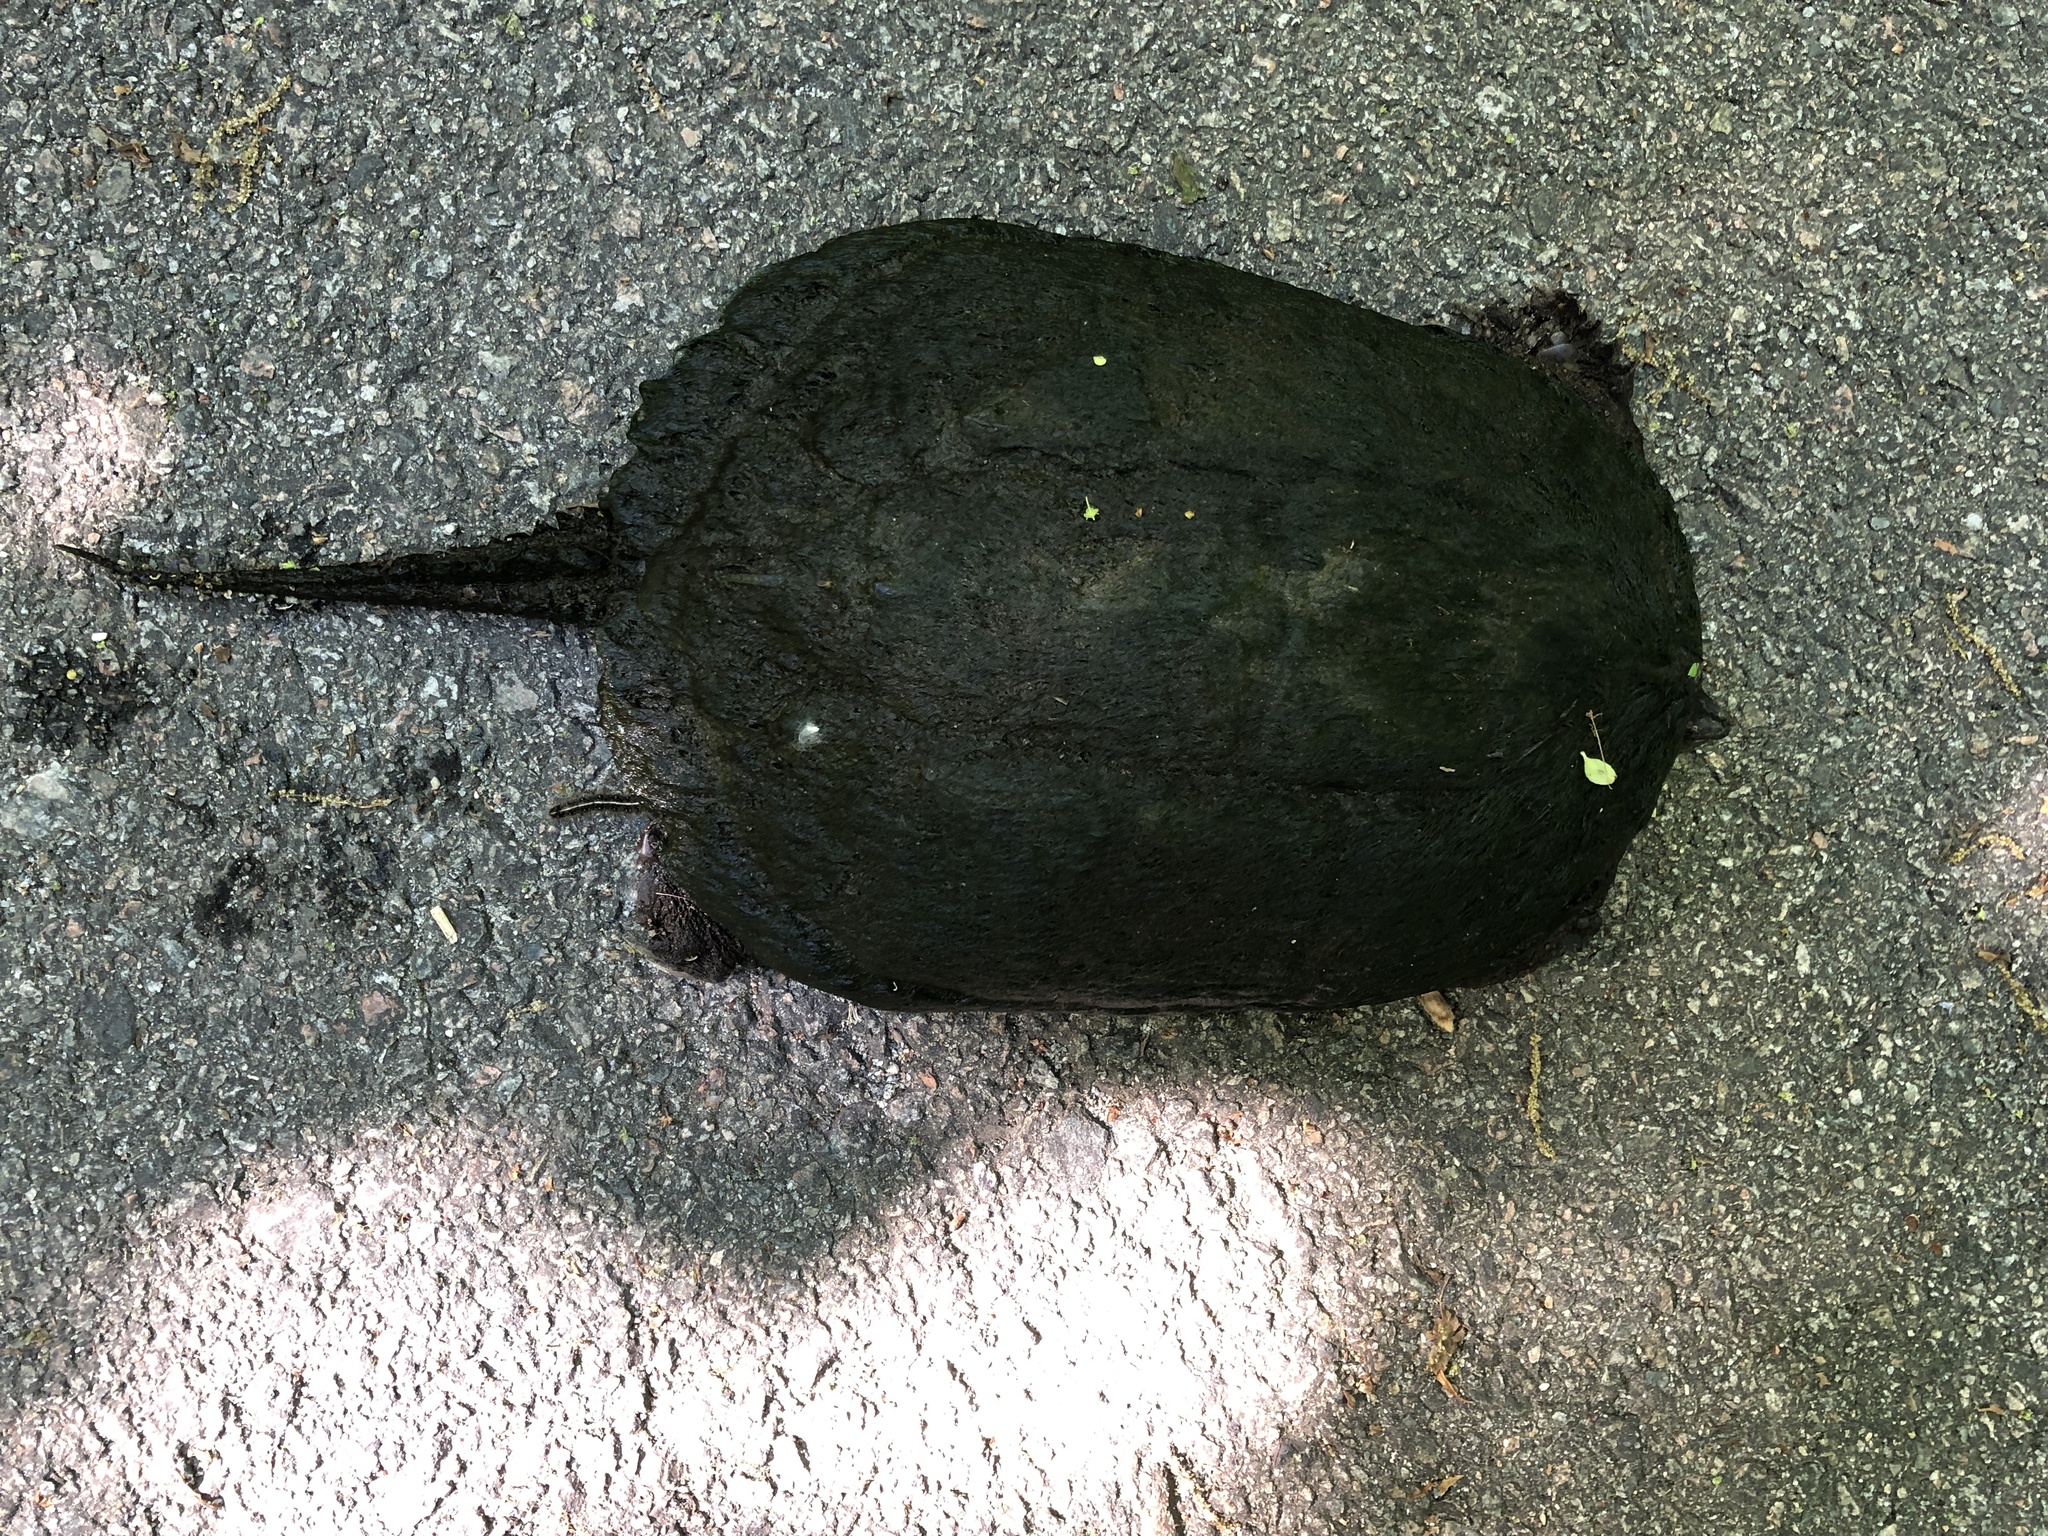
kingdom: Animalia
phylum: Chordata
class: Testudines
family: Chelydridae
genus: Chelydra
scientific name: Chelydra serpentina
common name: Common snapping turtle
